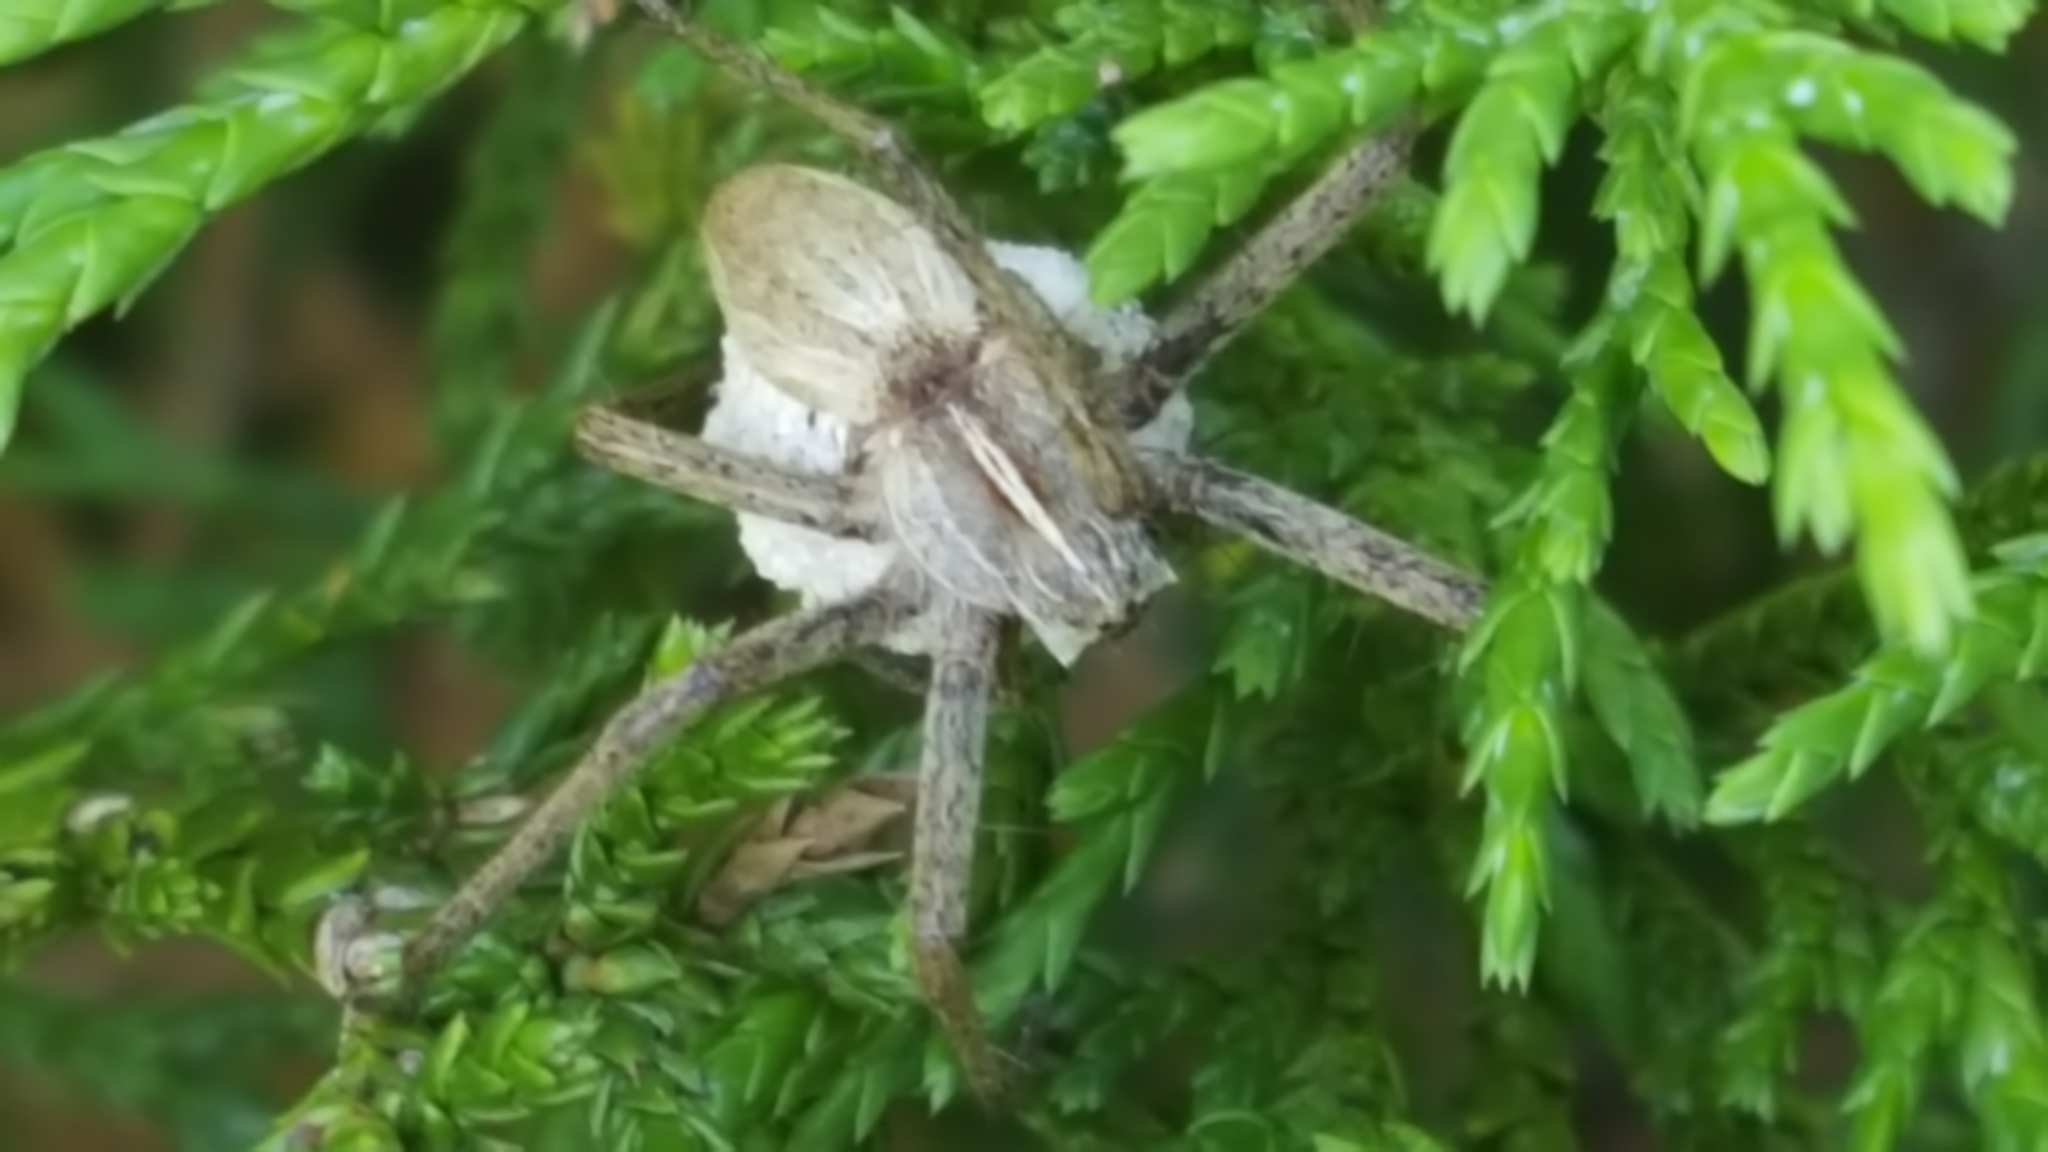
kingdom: Animalia
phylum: Arthropoda
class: Arachnida
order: Araneae
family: Pisauridae
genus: Pisaura
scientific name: Pisaura mirabilis
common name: Tent spider
